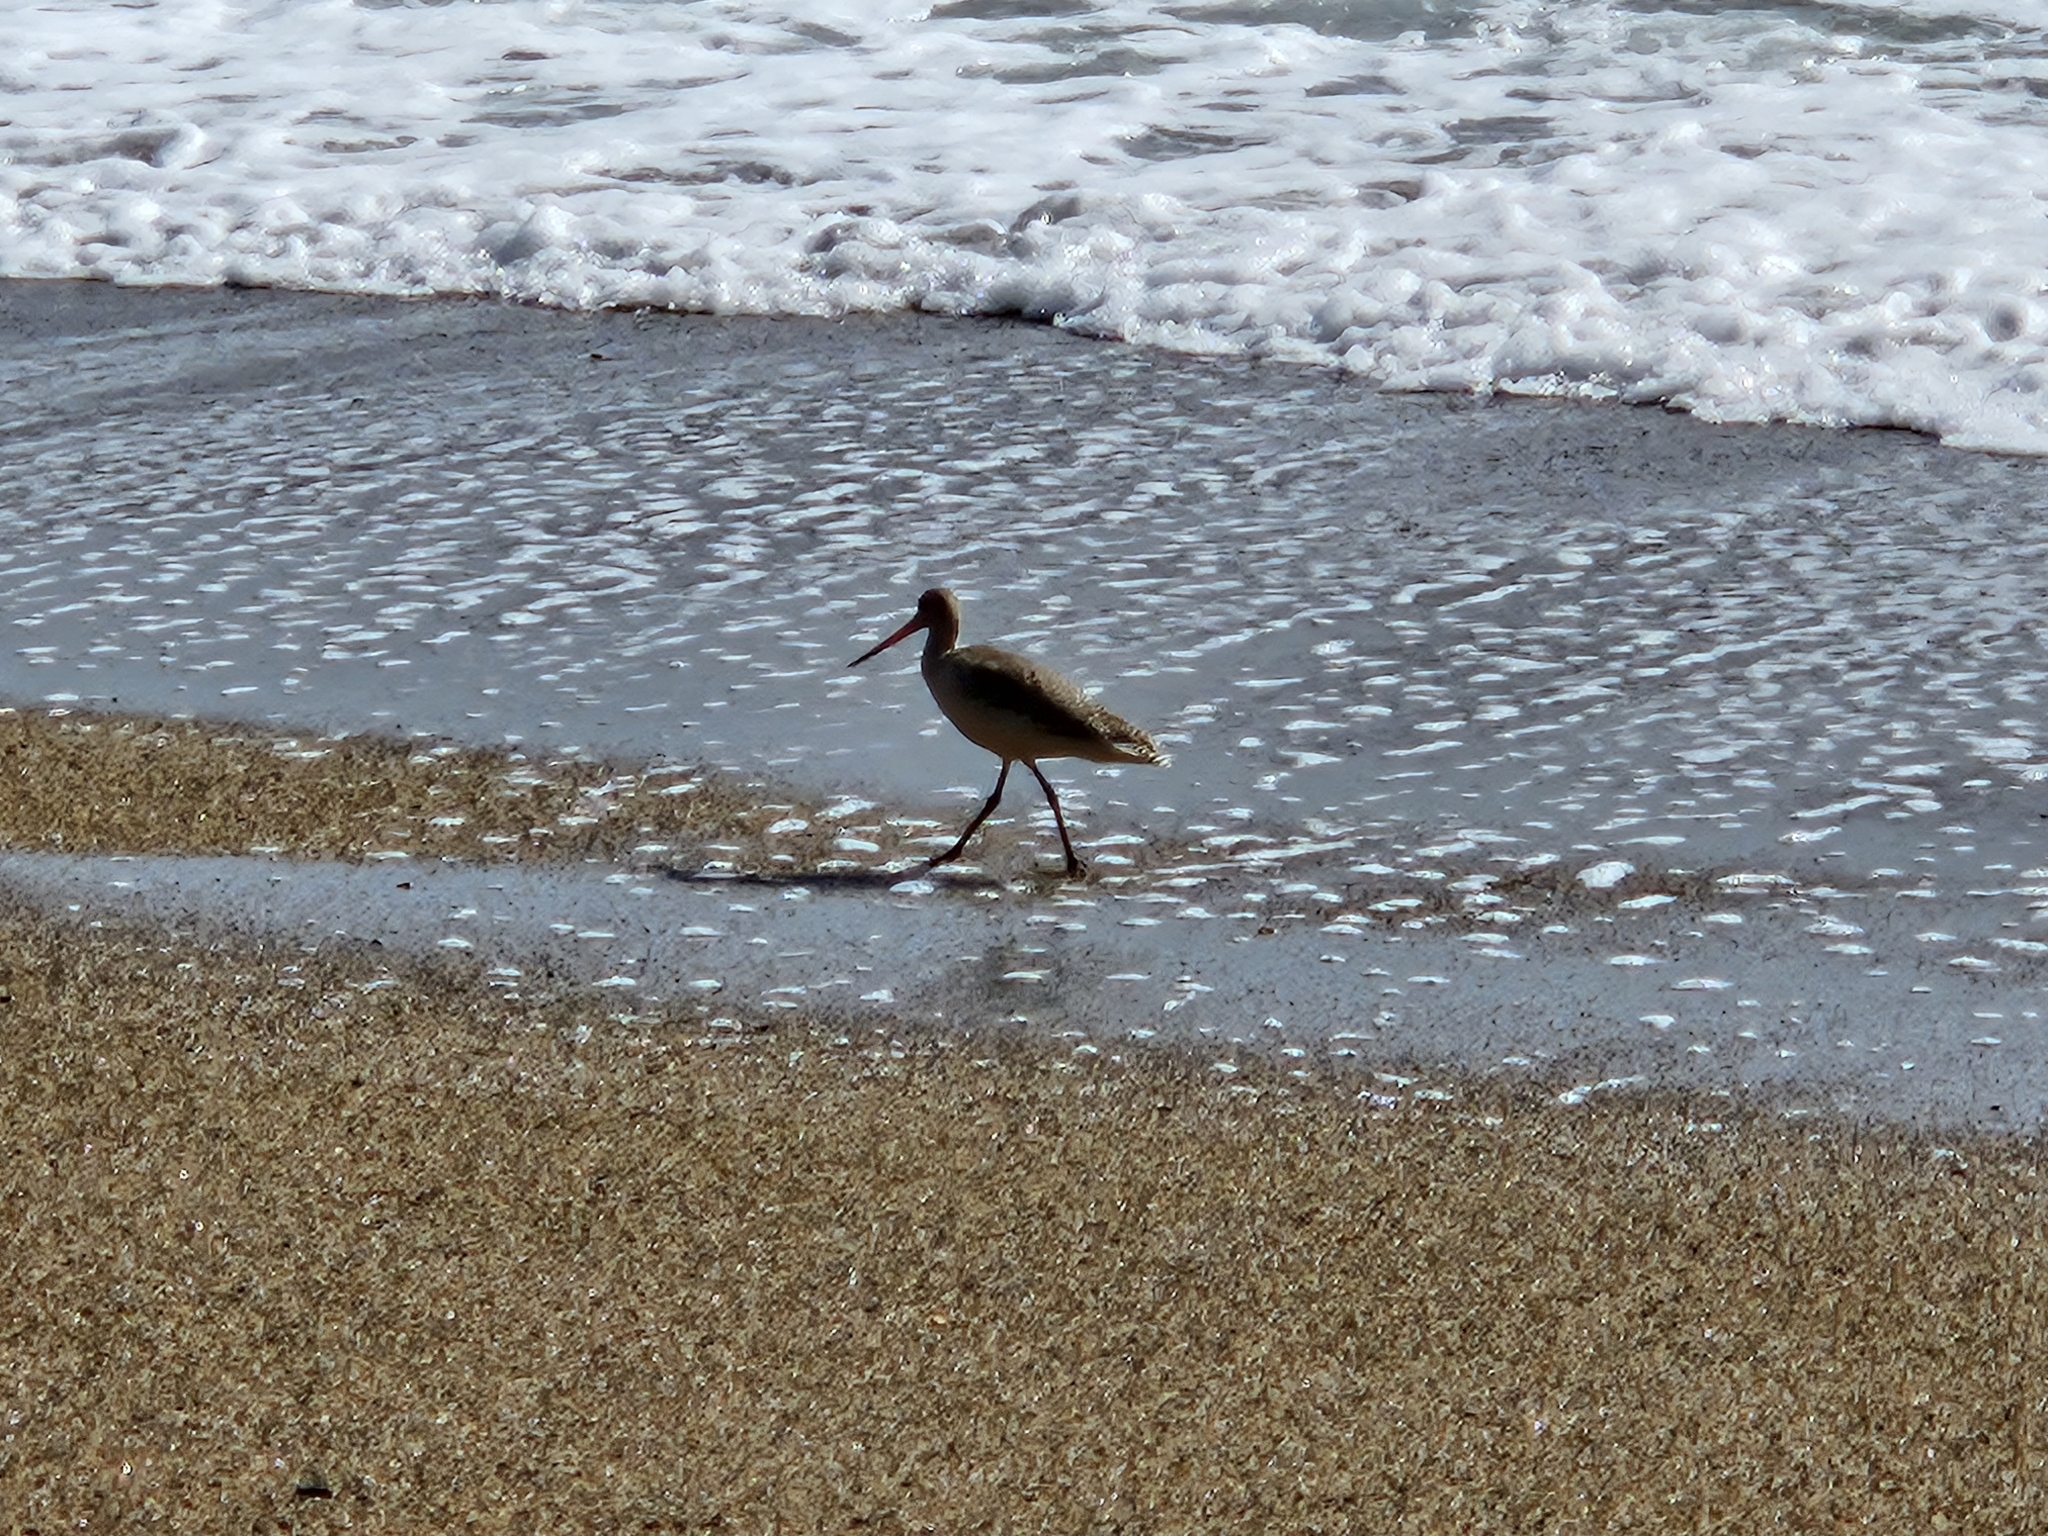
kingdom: Animalia
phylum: Chordata
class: Aves
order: Charadriiformes
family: Scolopacidae
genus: Limosa
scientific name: Limosa fedoa
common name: Marbled godwit
